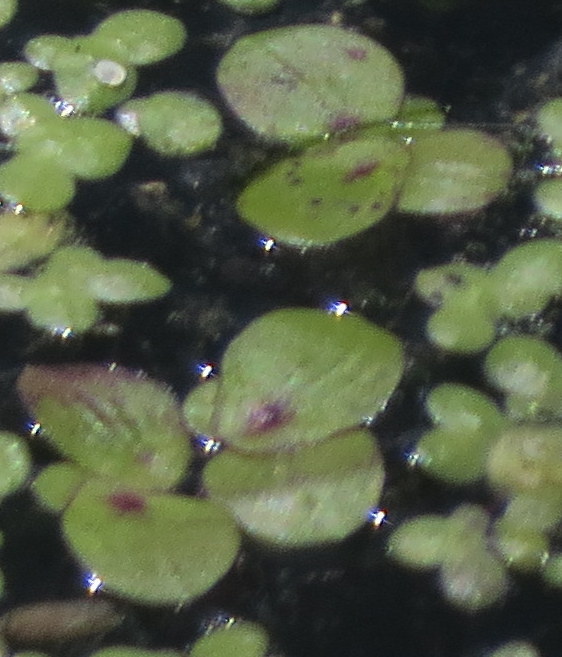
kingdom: Plantae
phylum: Tracheophyta
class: Liliopsida
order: Alismatales
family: Araceae
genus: Spirodela
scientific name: Spirodela polyrhiza
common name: Great duckweed
